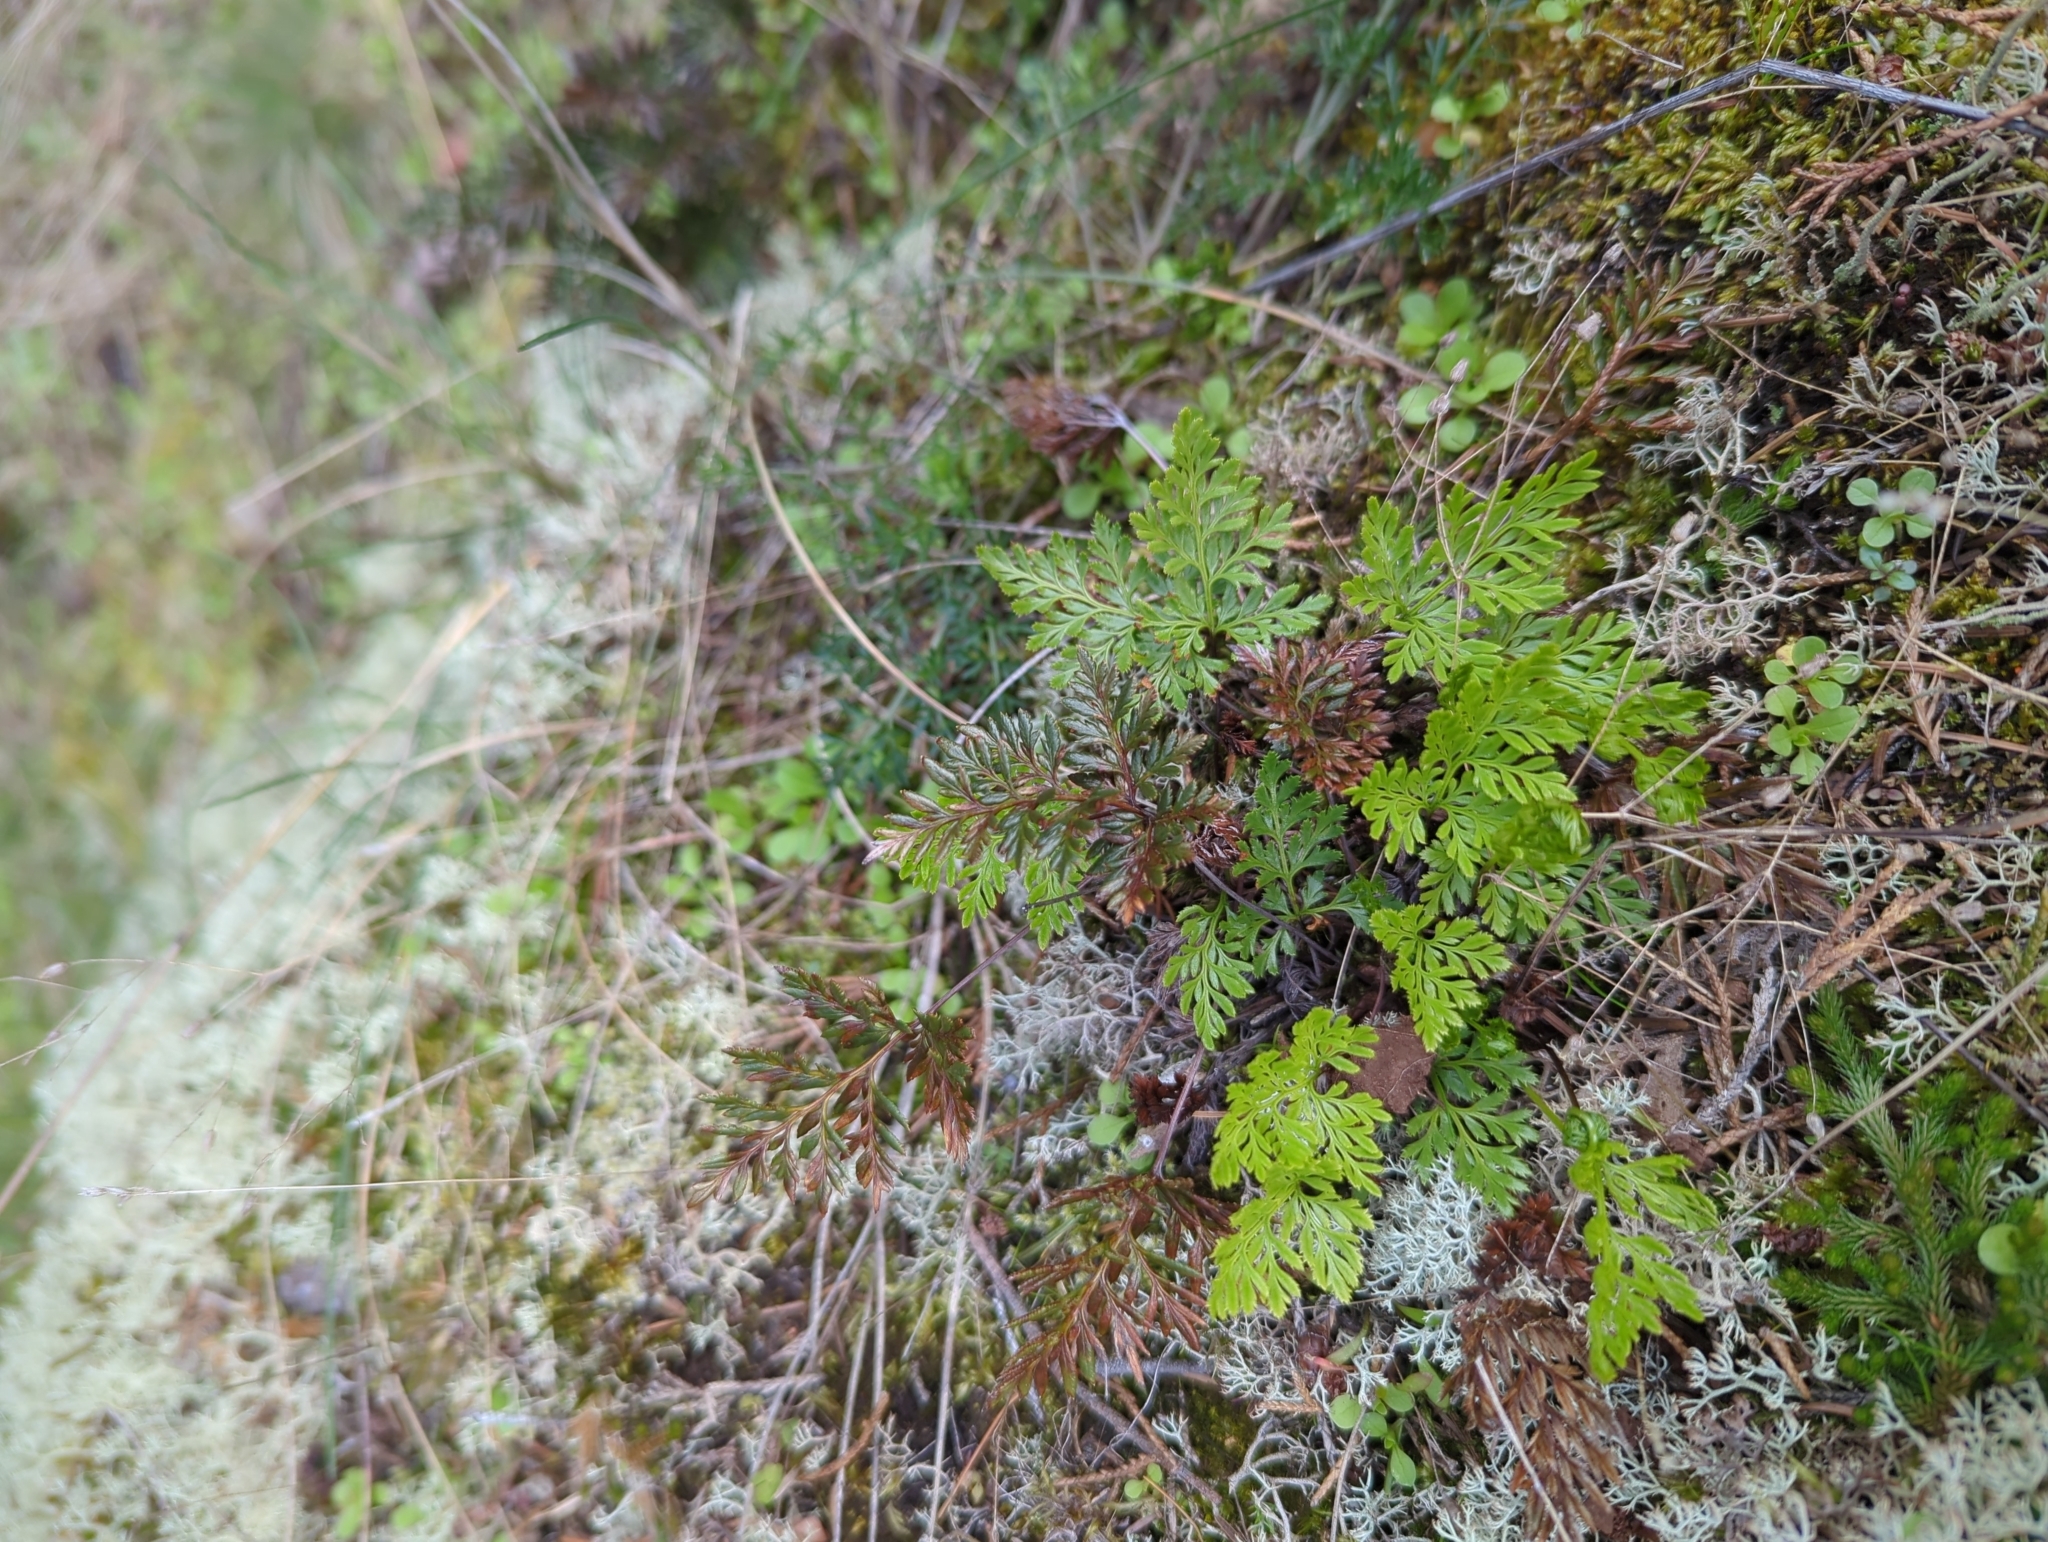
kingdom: Plantae
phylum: Tracheophyta
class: Polypodiopsida
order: Polypodiales
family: Pteridaceae
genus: Aspidotis
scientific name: Aspidotis densa
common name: Indian's dream
